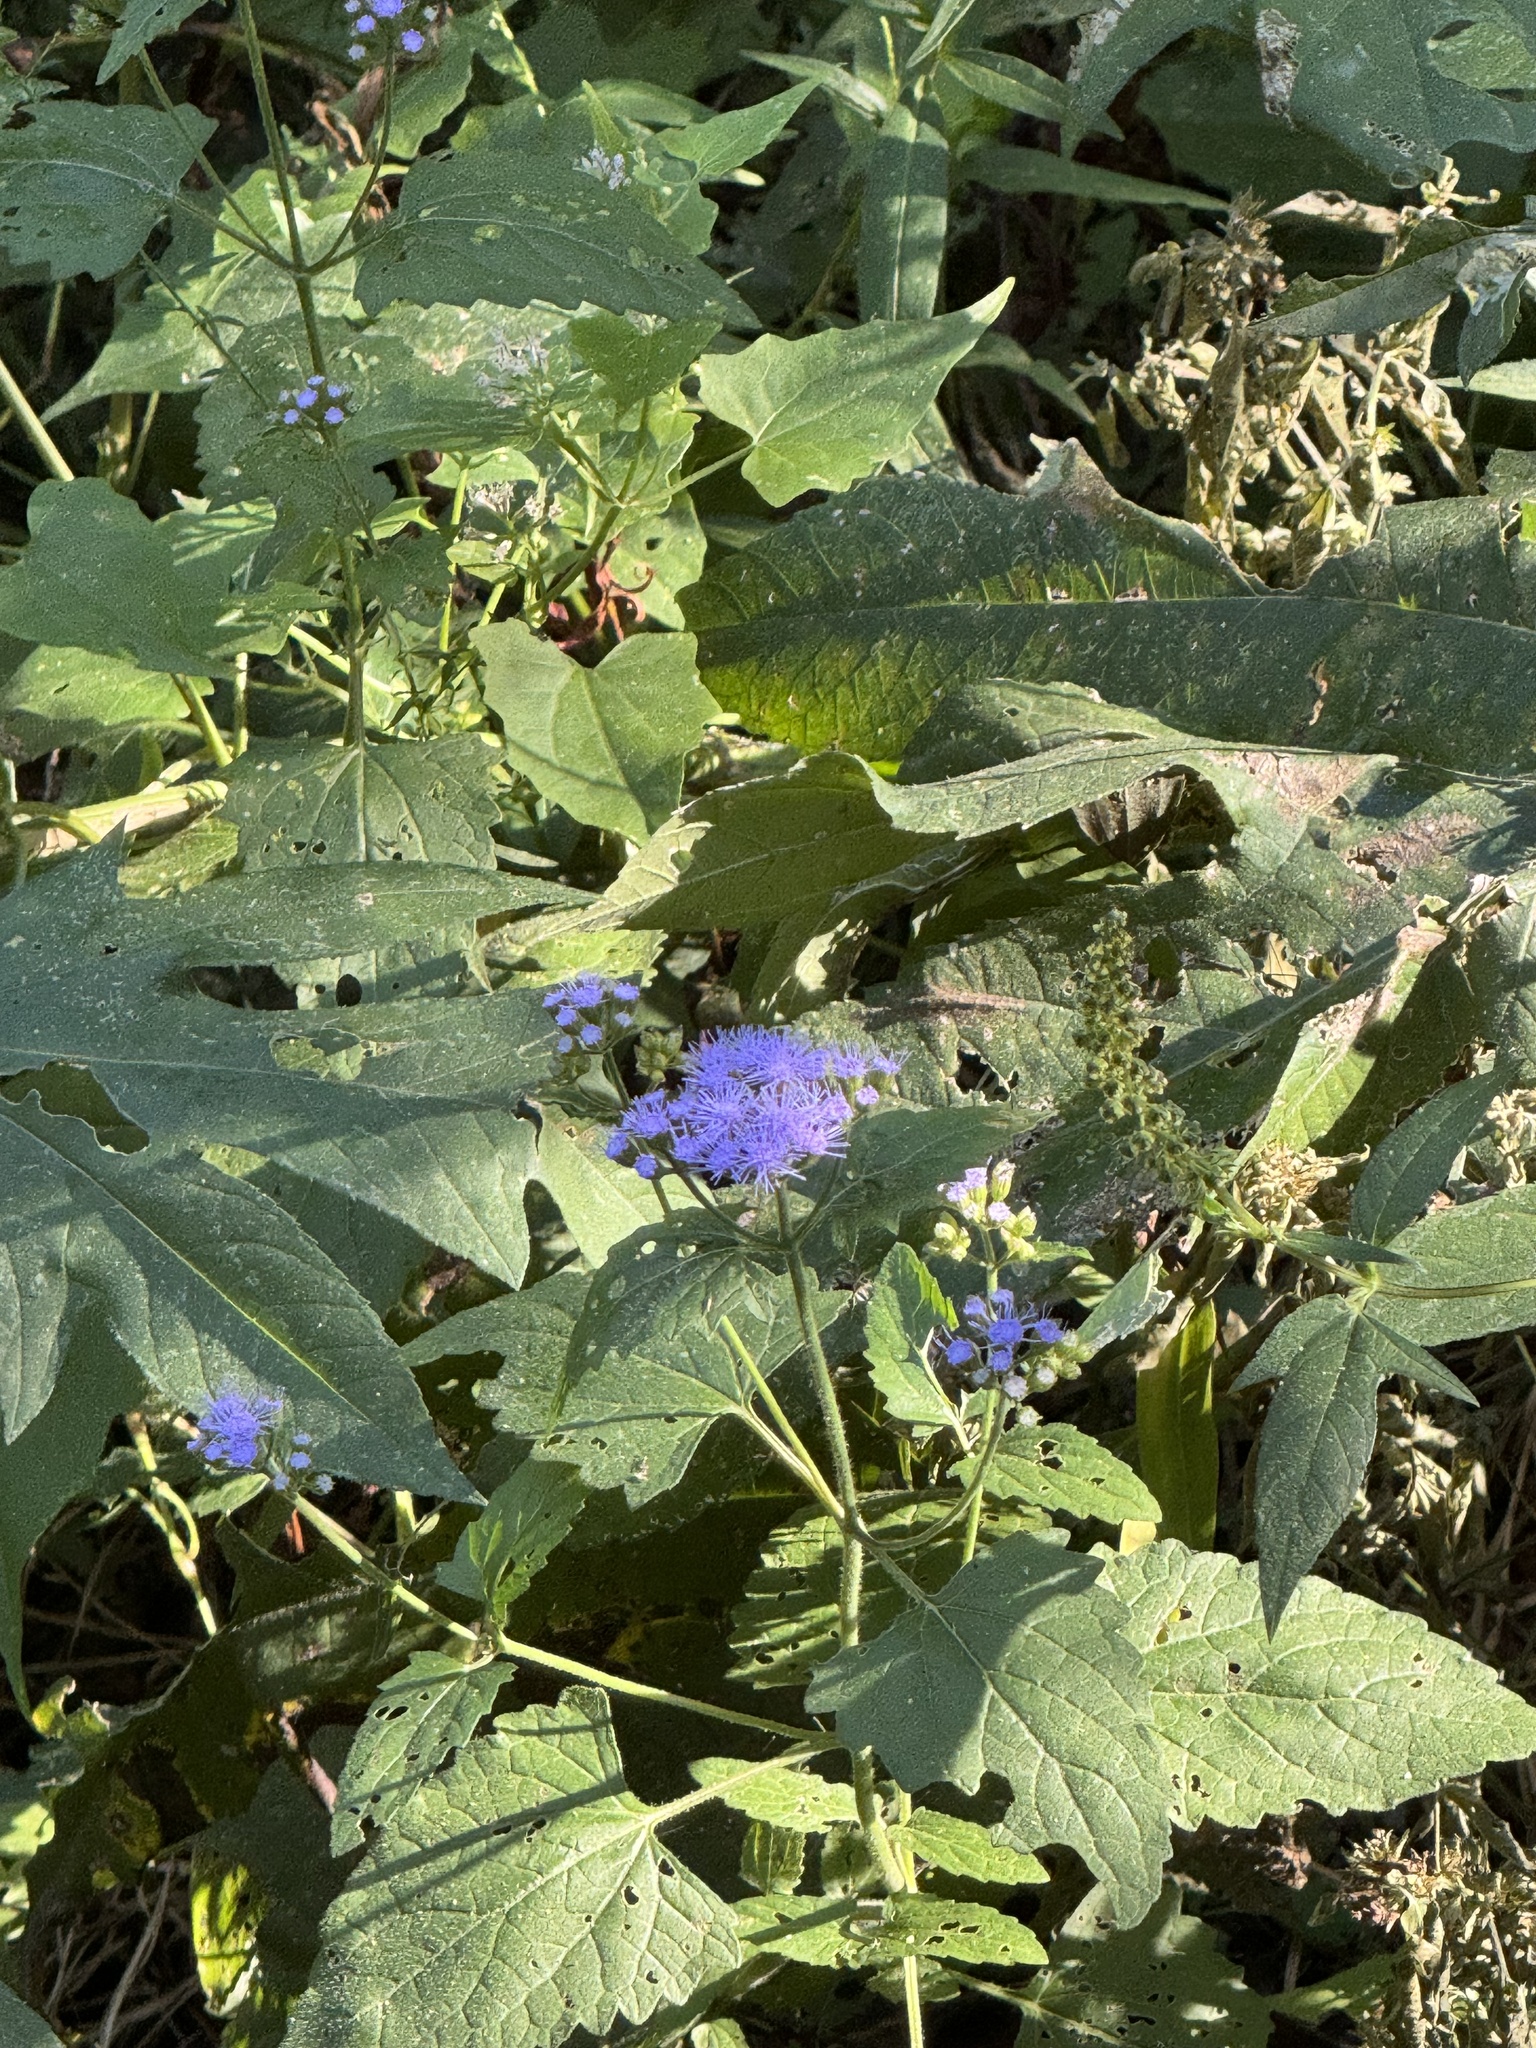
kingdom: Plantae
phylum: Tracheophyta
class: Magnoliopsida
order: Asterales
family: Asteraceae
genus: Conoclinium
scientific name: Conoclinium coelestinum
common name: Blue mistflower
